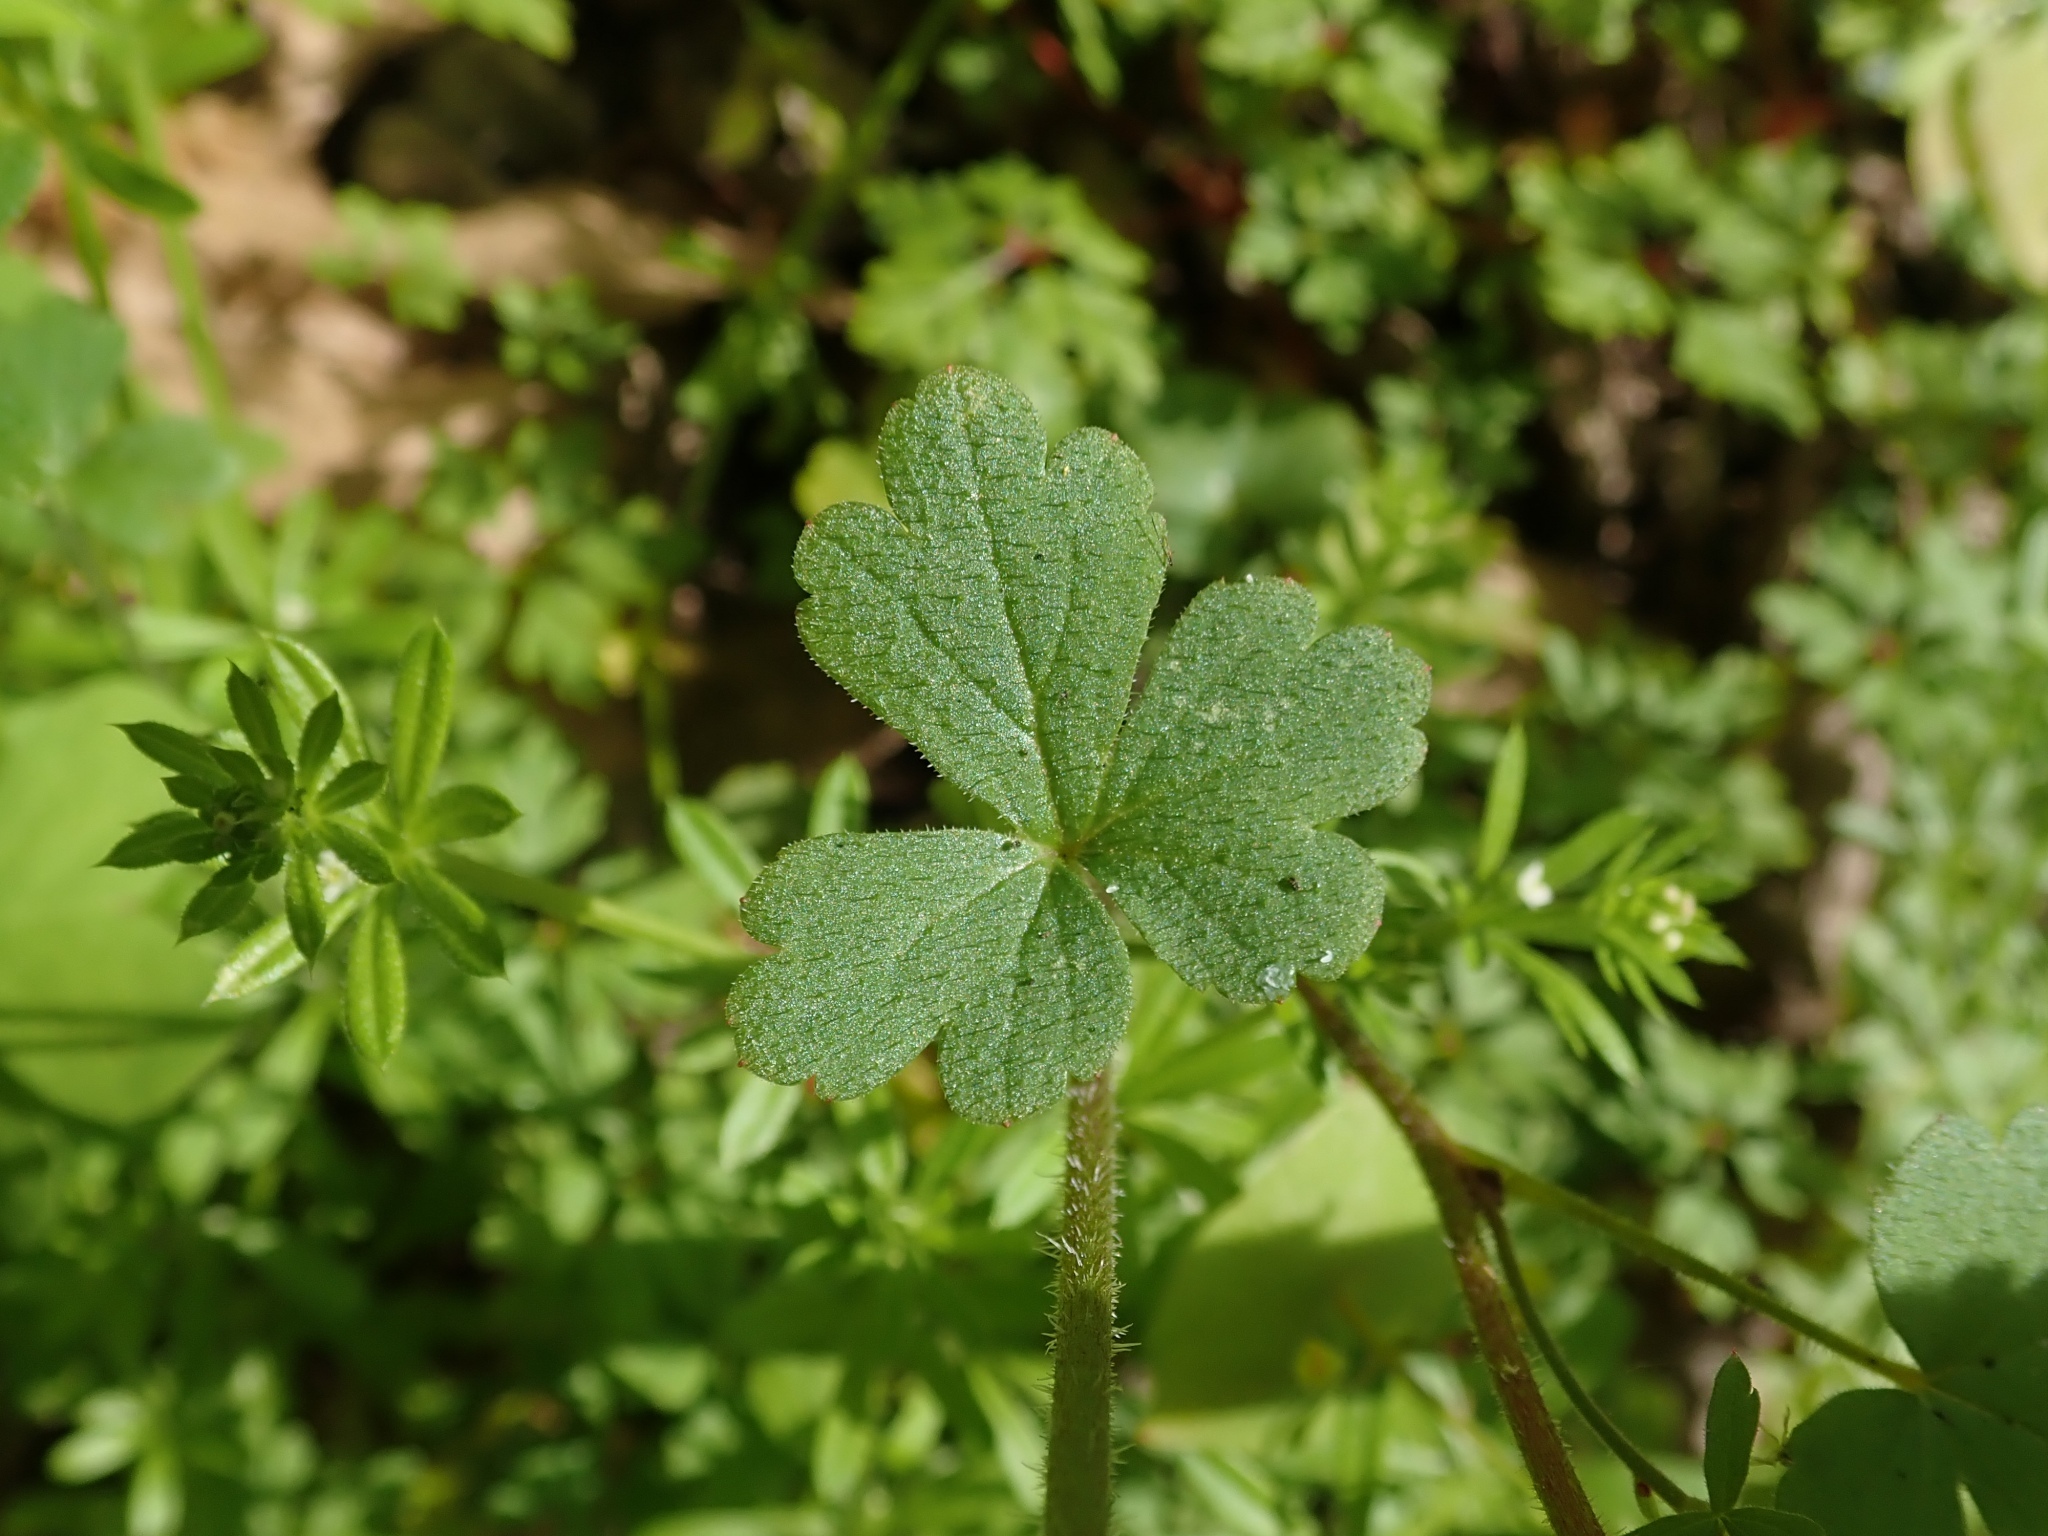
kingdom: Plantae
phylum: Tracheophyta
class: Magnoliopsida
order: Saxifragales
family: Saxifragaceae
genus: Lithophragma
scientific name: Lithophragma heterophyllum
